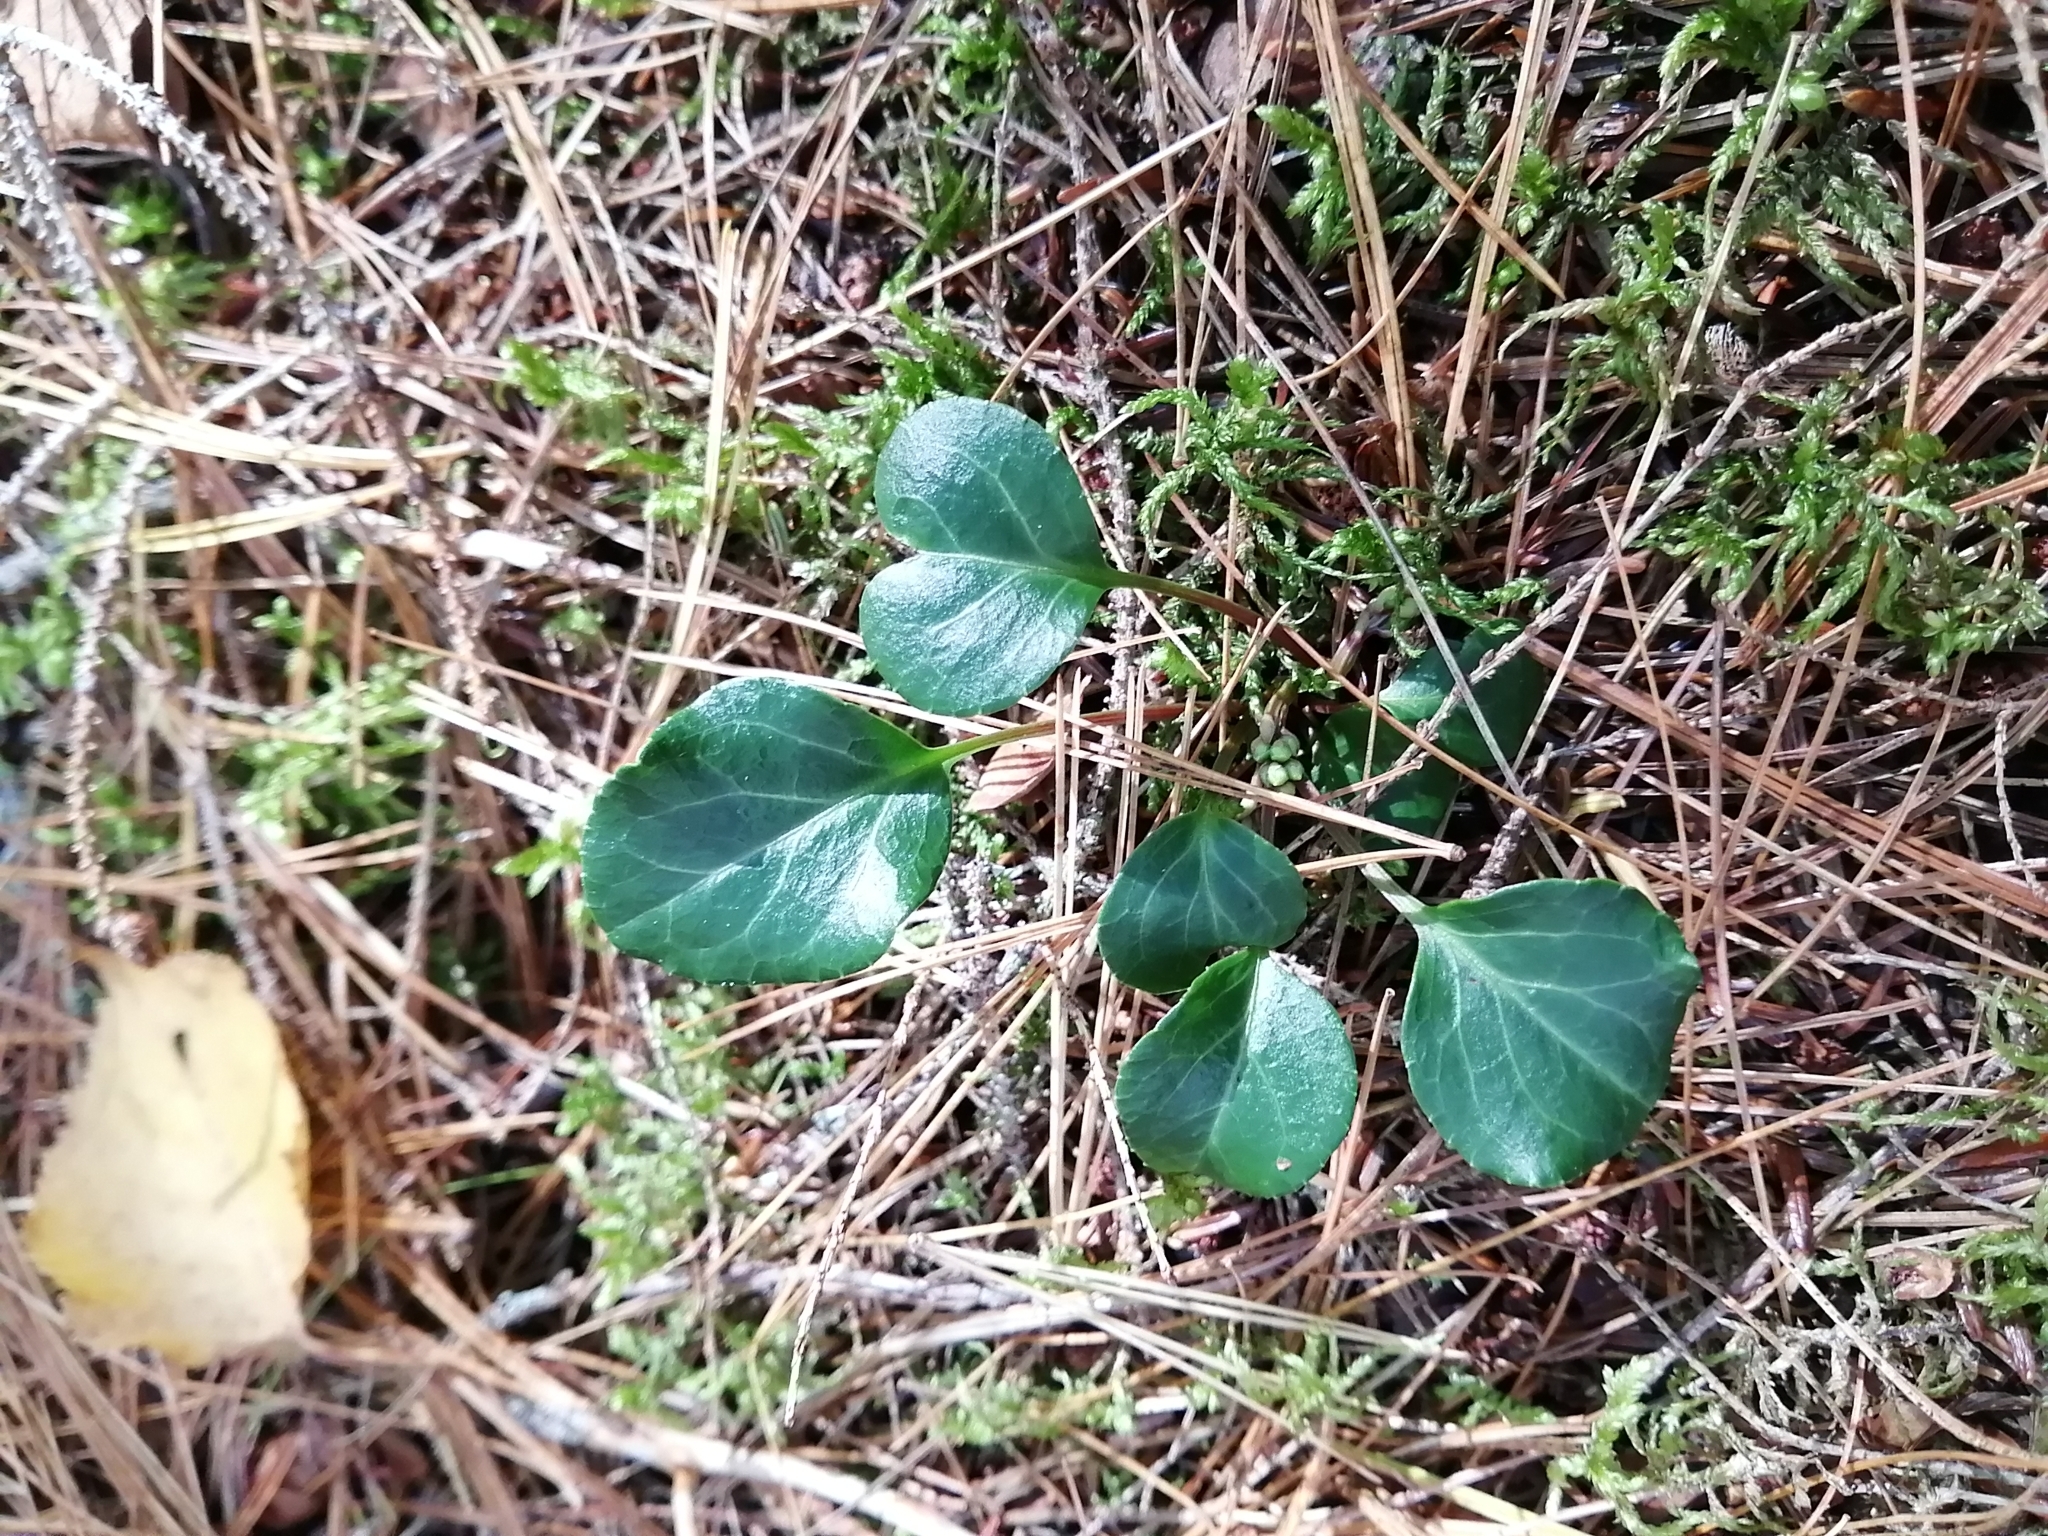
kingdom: Plantae
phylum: Tracheophyta
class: Magnoliopsida
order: Ericales
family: Ericaceae
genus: Pyrola
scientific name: Pyrola chlorantha
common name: Green wintergreen
